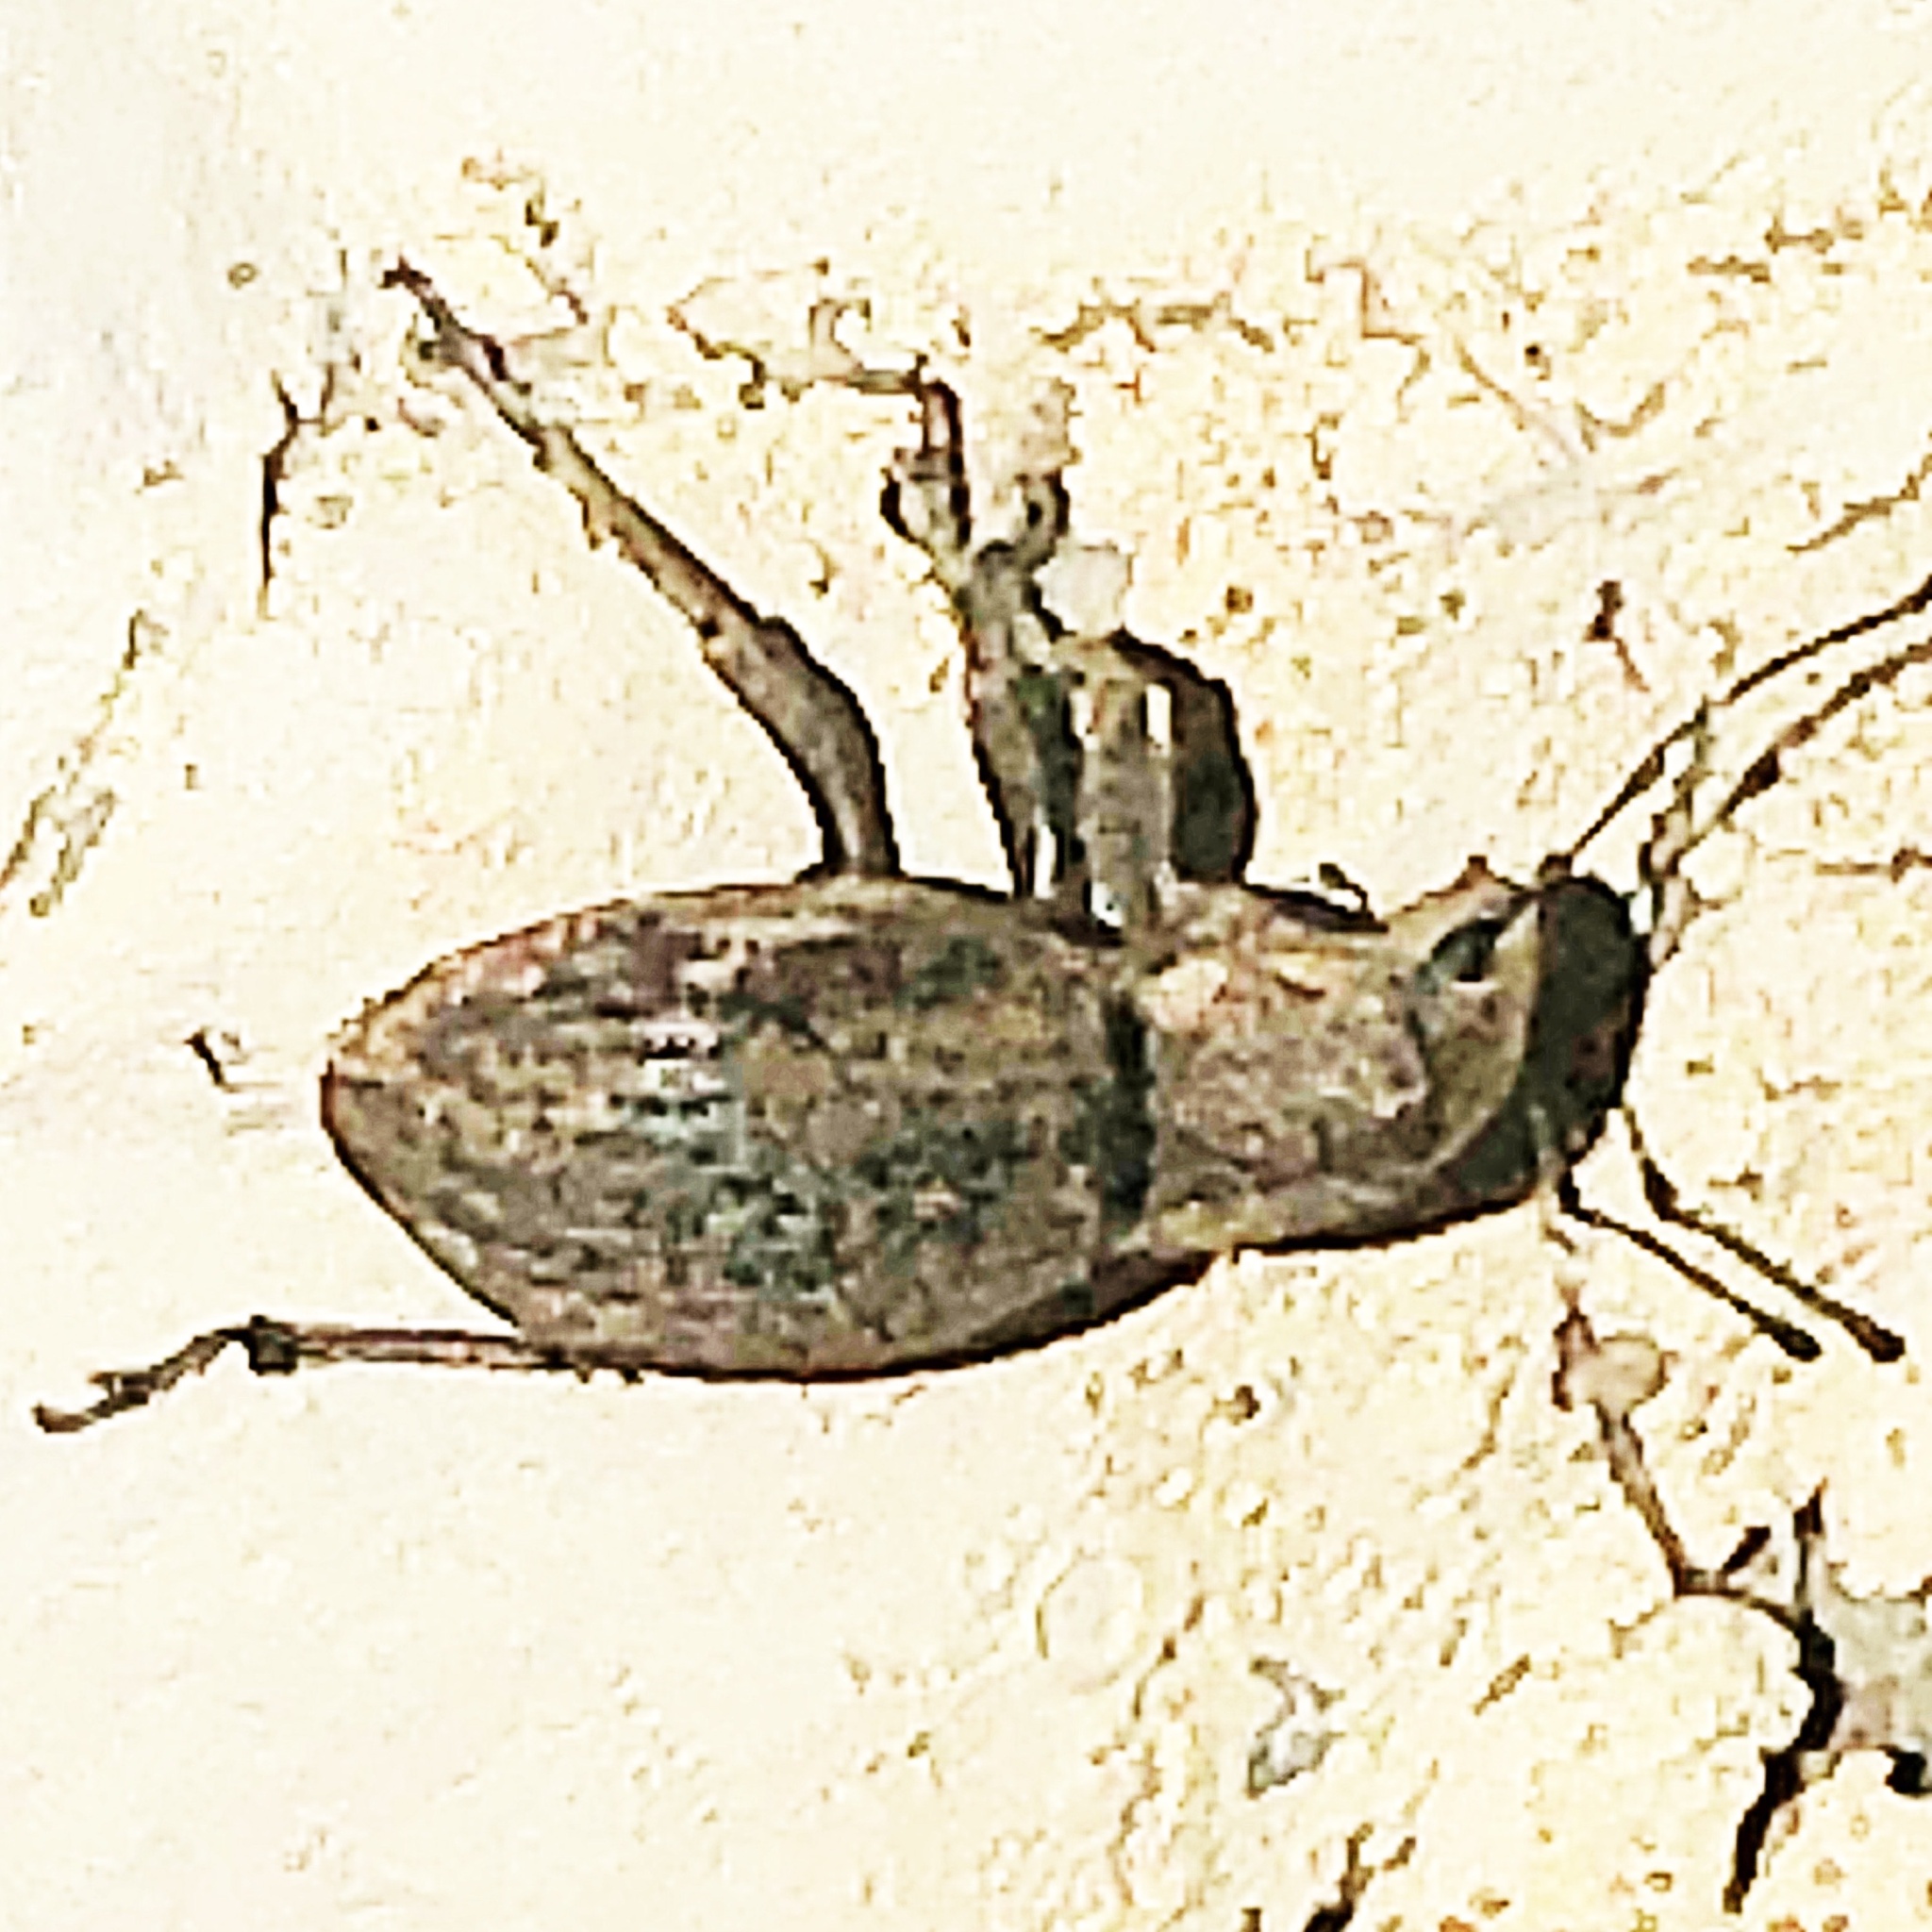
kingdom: Animalia
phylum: Arthropoda
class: Insecta
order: Coleoptera
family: Curculionidae
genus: Naupactus
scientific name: Naupactus cervinus
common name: Fuller rose beetle
